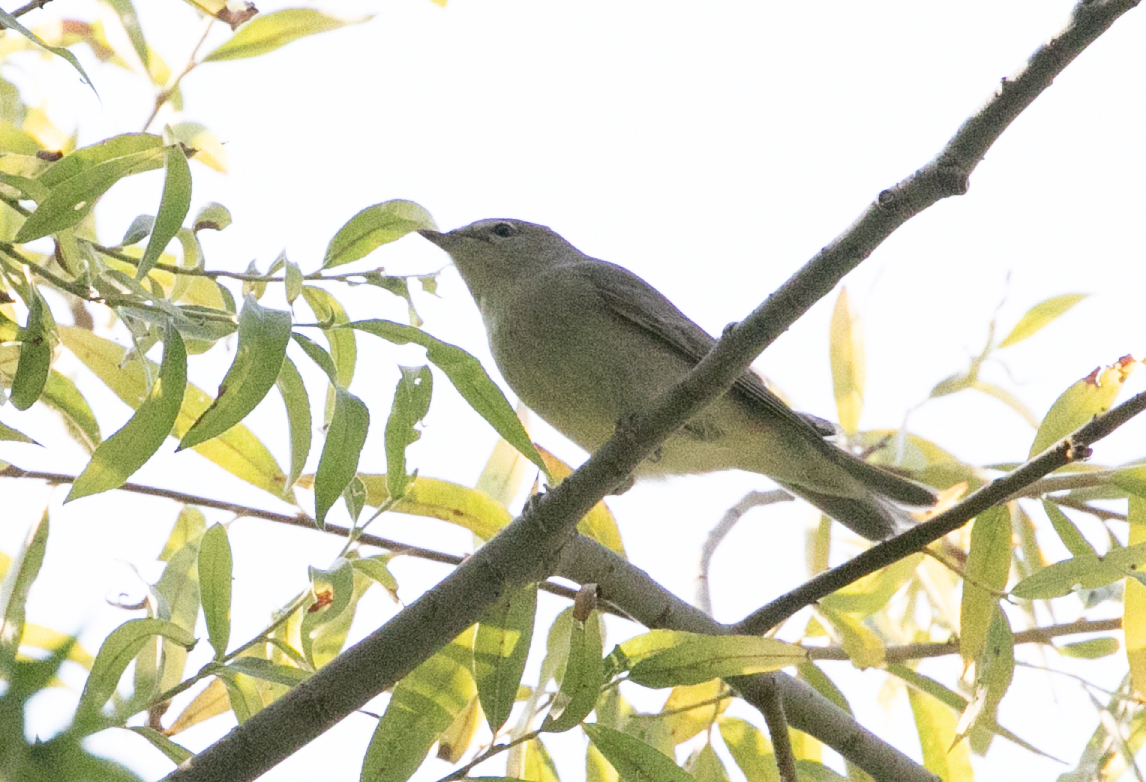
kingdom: Animalia
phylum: Chordata
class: Aves
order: Passeriformes
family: Sylviidae
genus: Sylvia
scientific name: Sylvia borin
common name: Garden warbler
